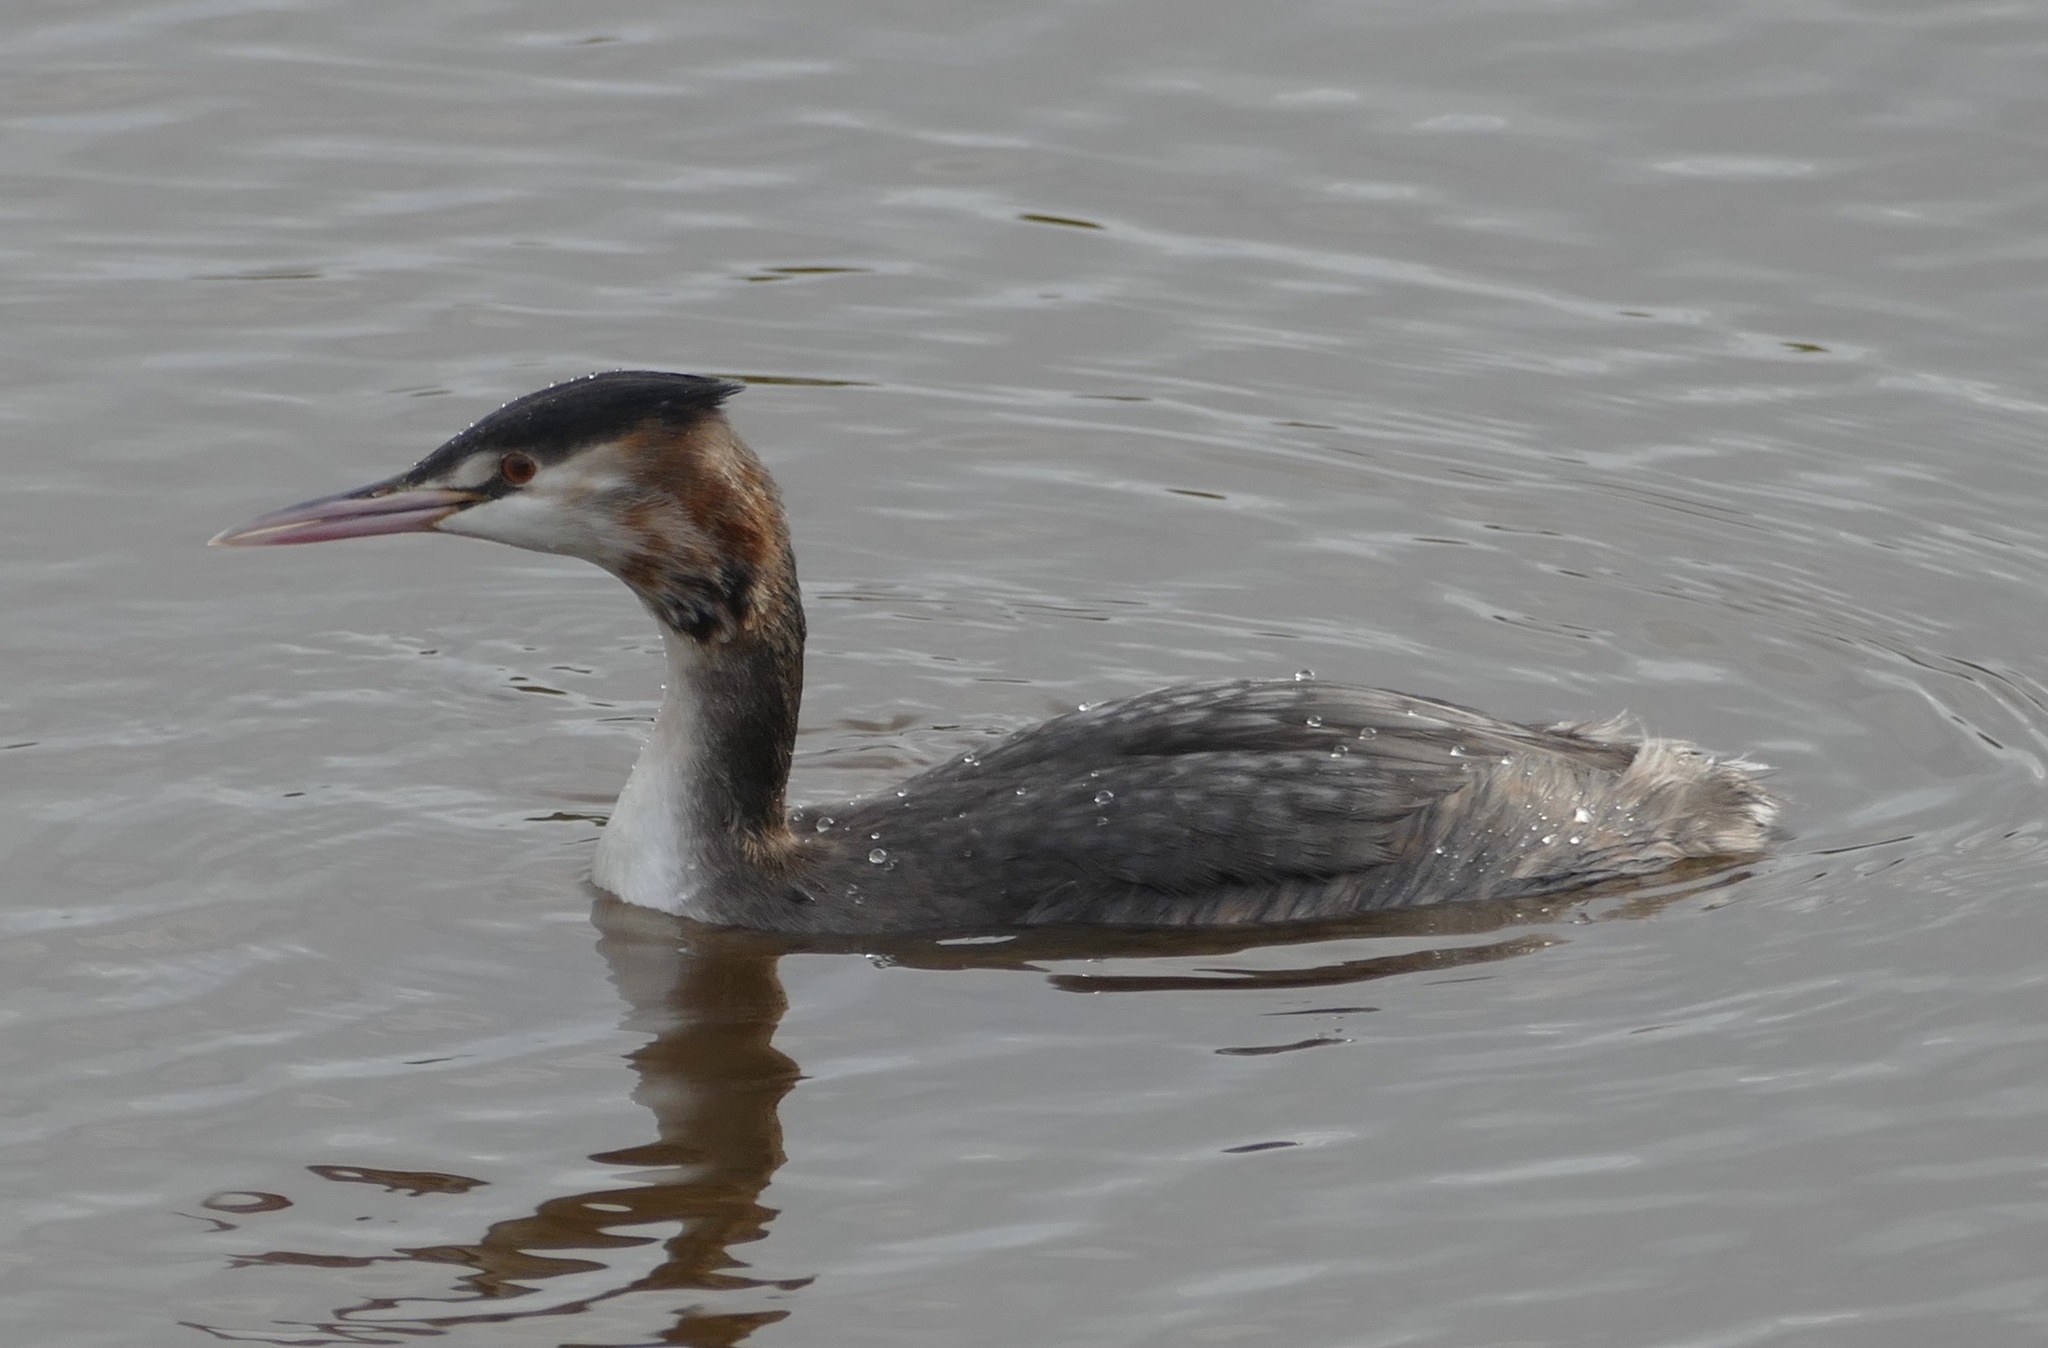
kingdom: Animalia
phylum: Chordata
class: Aves
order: Podicipediformes
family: Podicipedidae
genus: Podiceps
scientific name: Podiceps cristatus
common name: Great crested grebe
